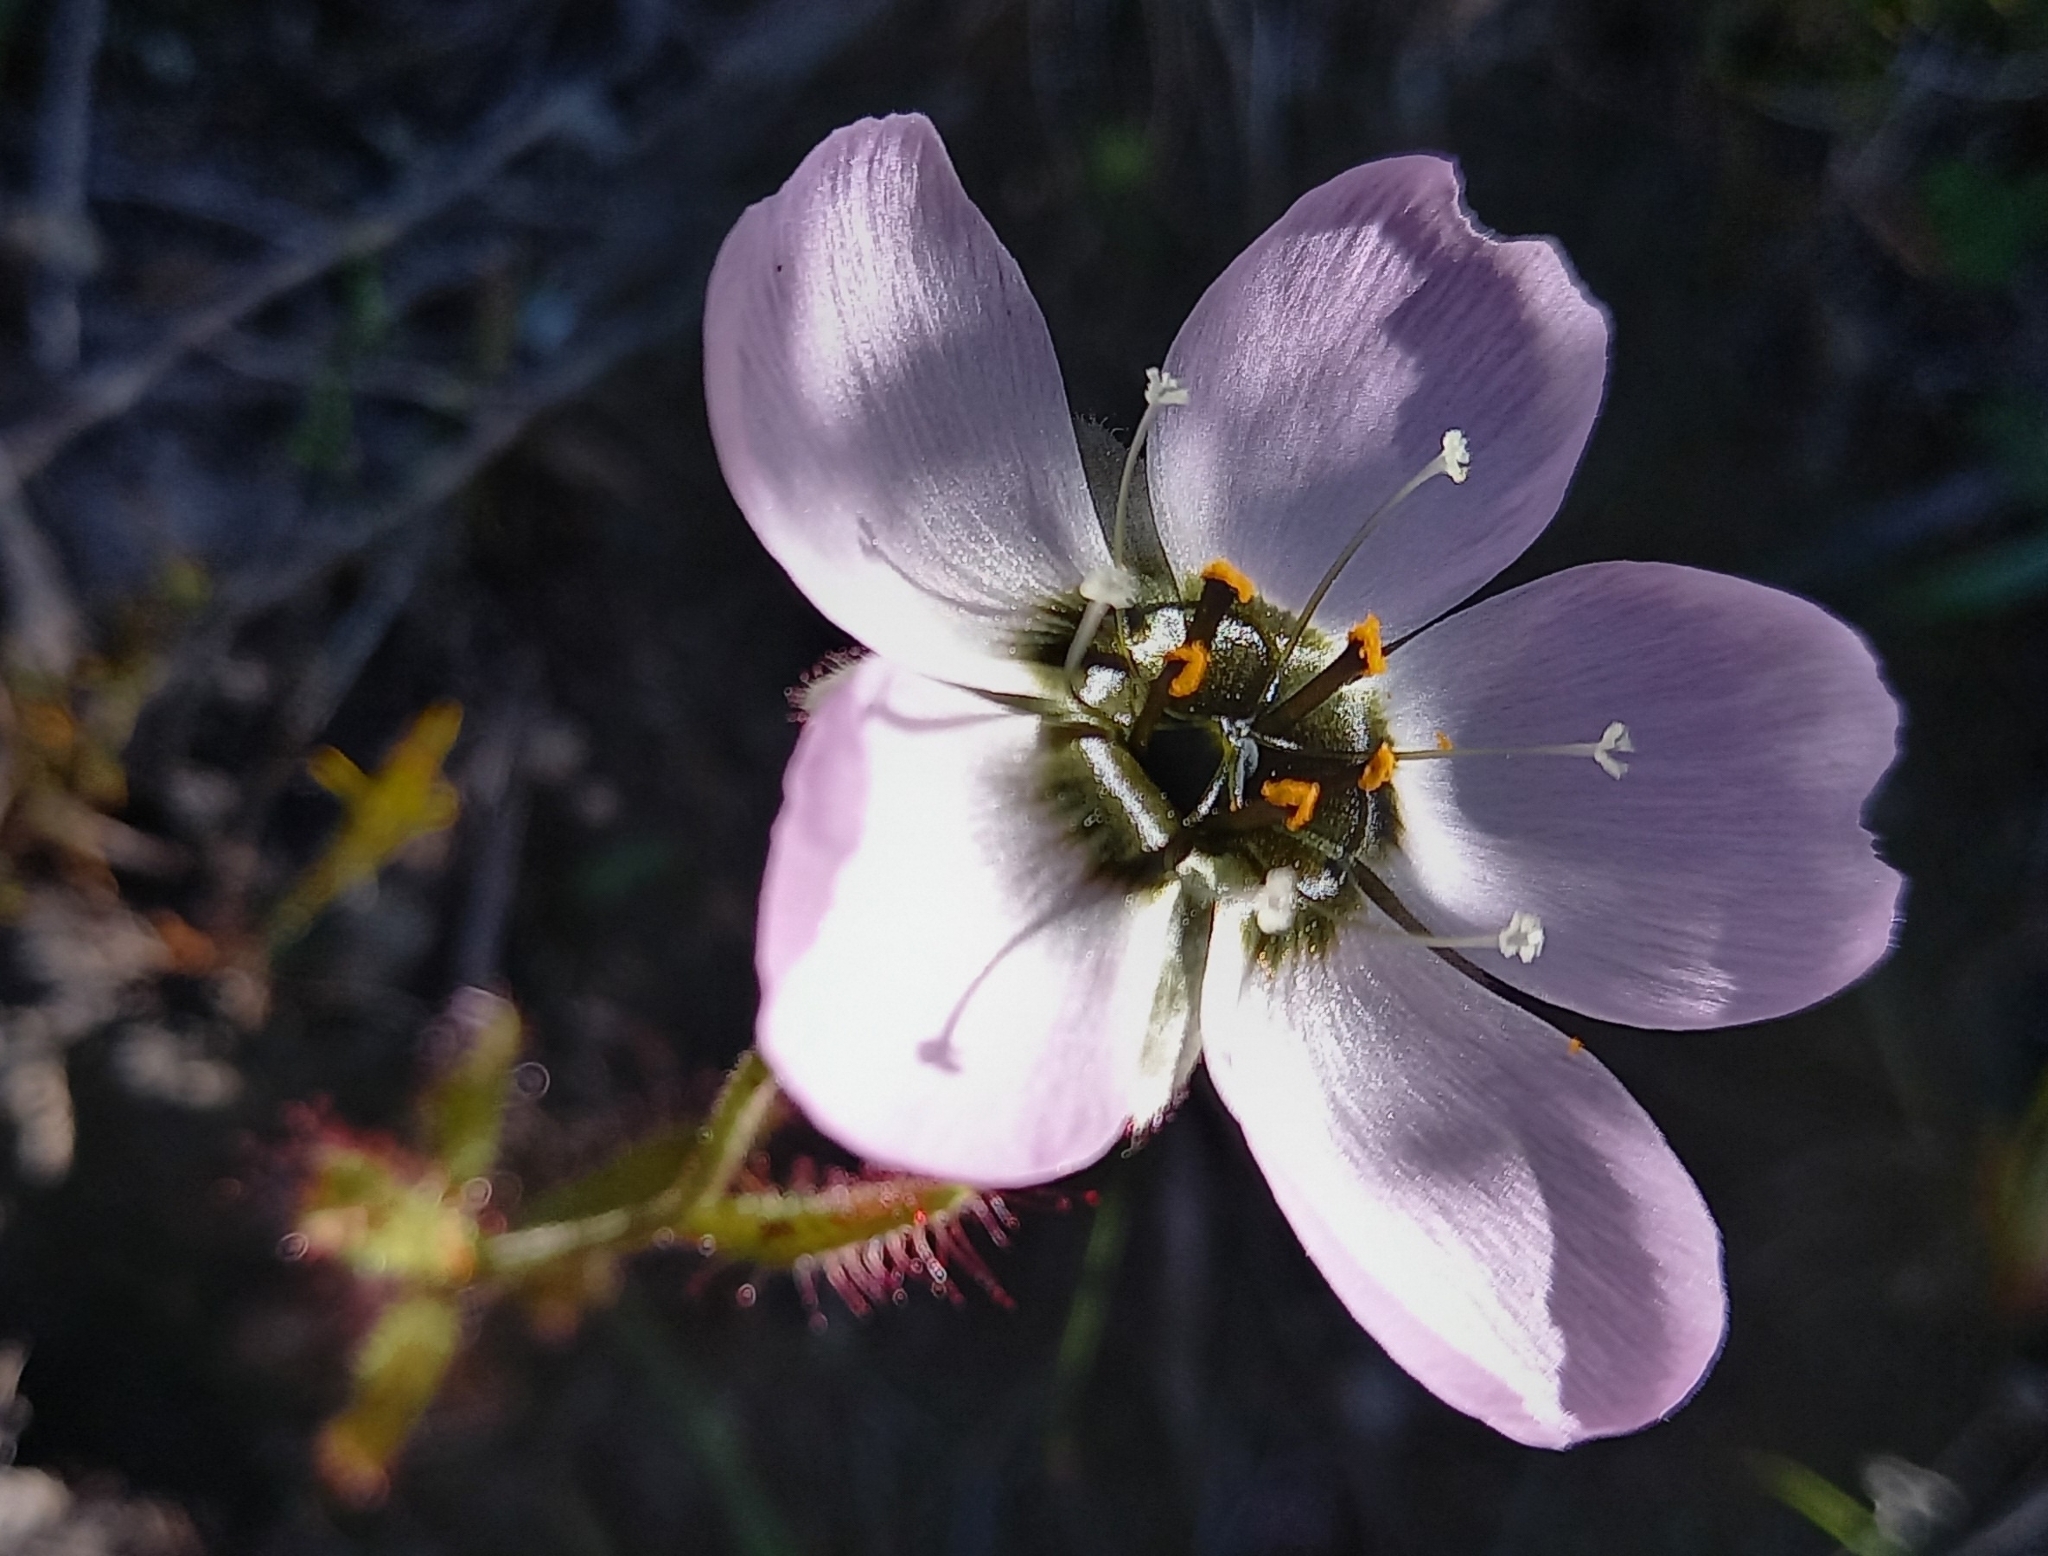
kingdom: Plantae
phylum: Tracheophyta
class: Magnoliopsida
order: Caryophyllales
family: Droseraceae
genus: Drosera
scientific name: Drosera cistiflora
